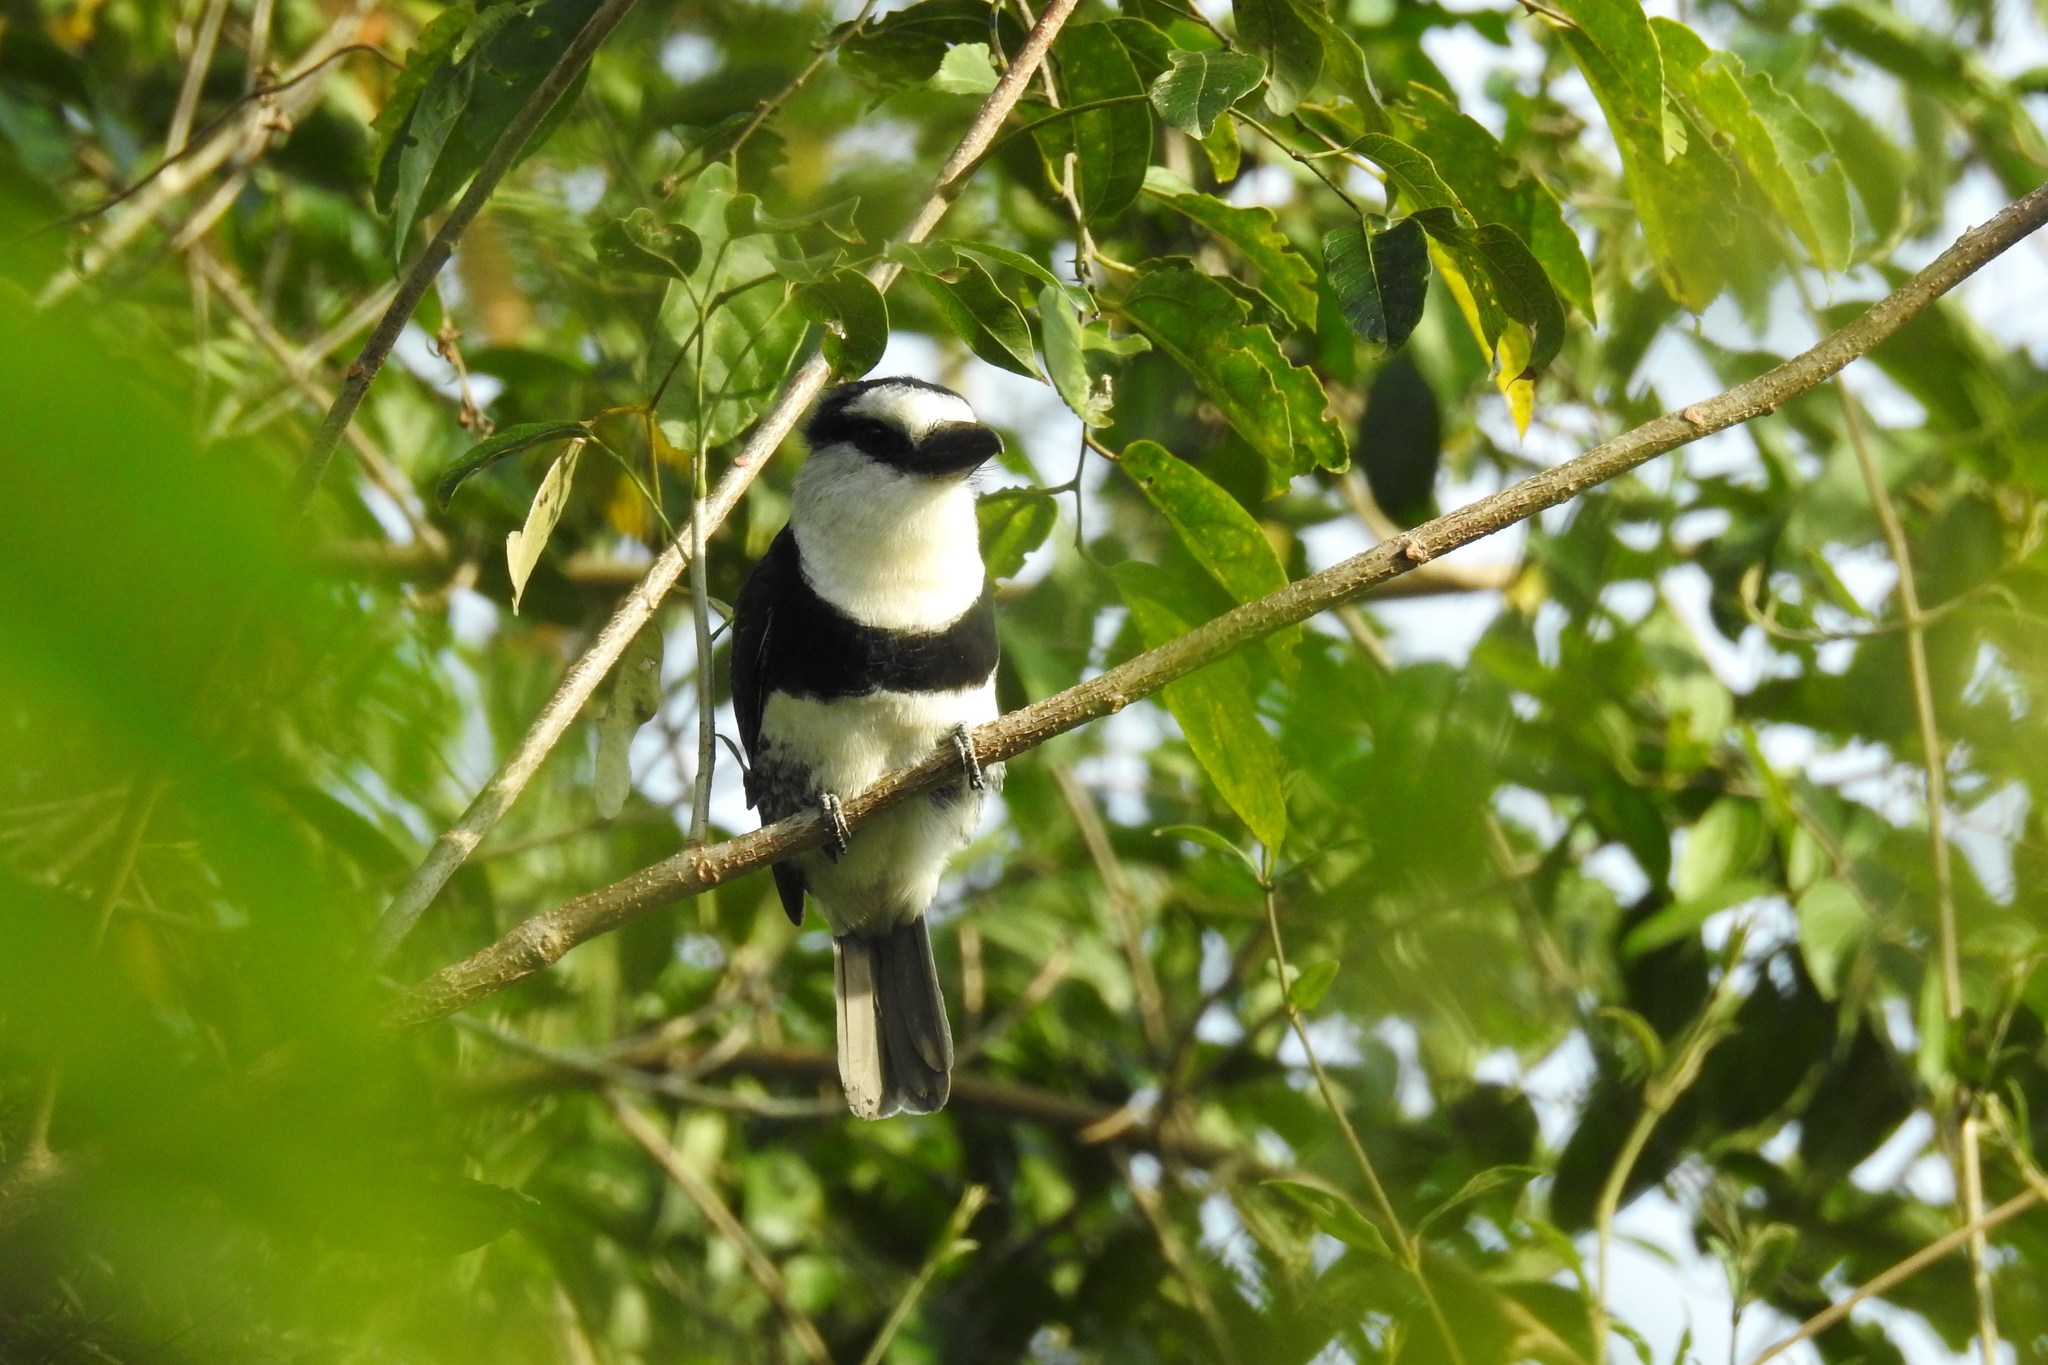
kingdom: Animalia
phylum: Chordata
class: Aves
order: Piciformes
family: Bucconidae
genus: Notharchus
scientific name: Notharchus hyperrhynchus
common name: White-necked puffbird
